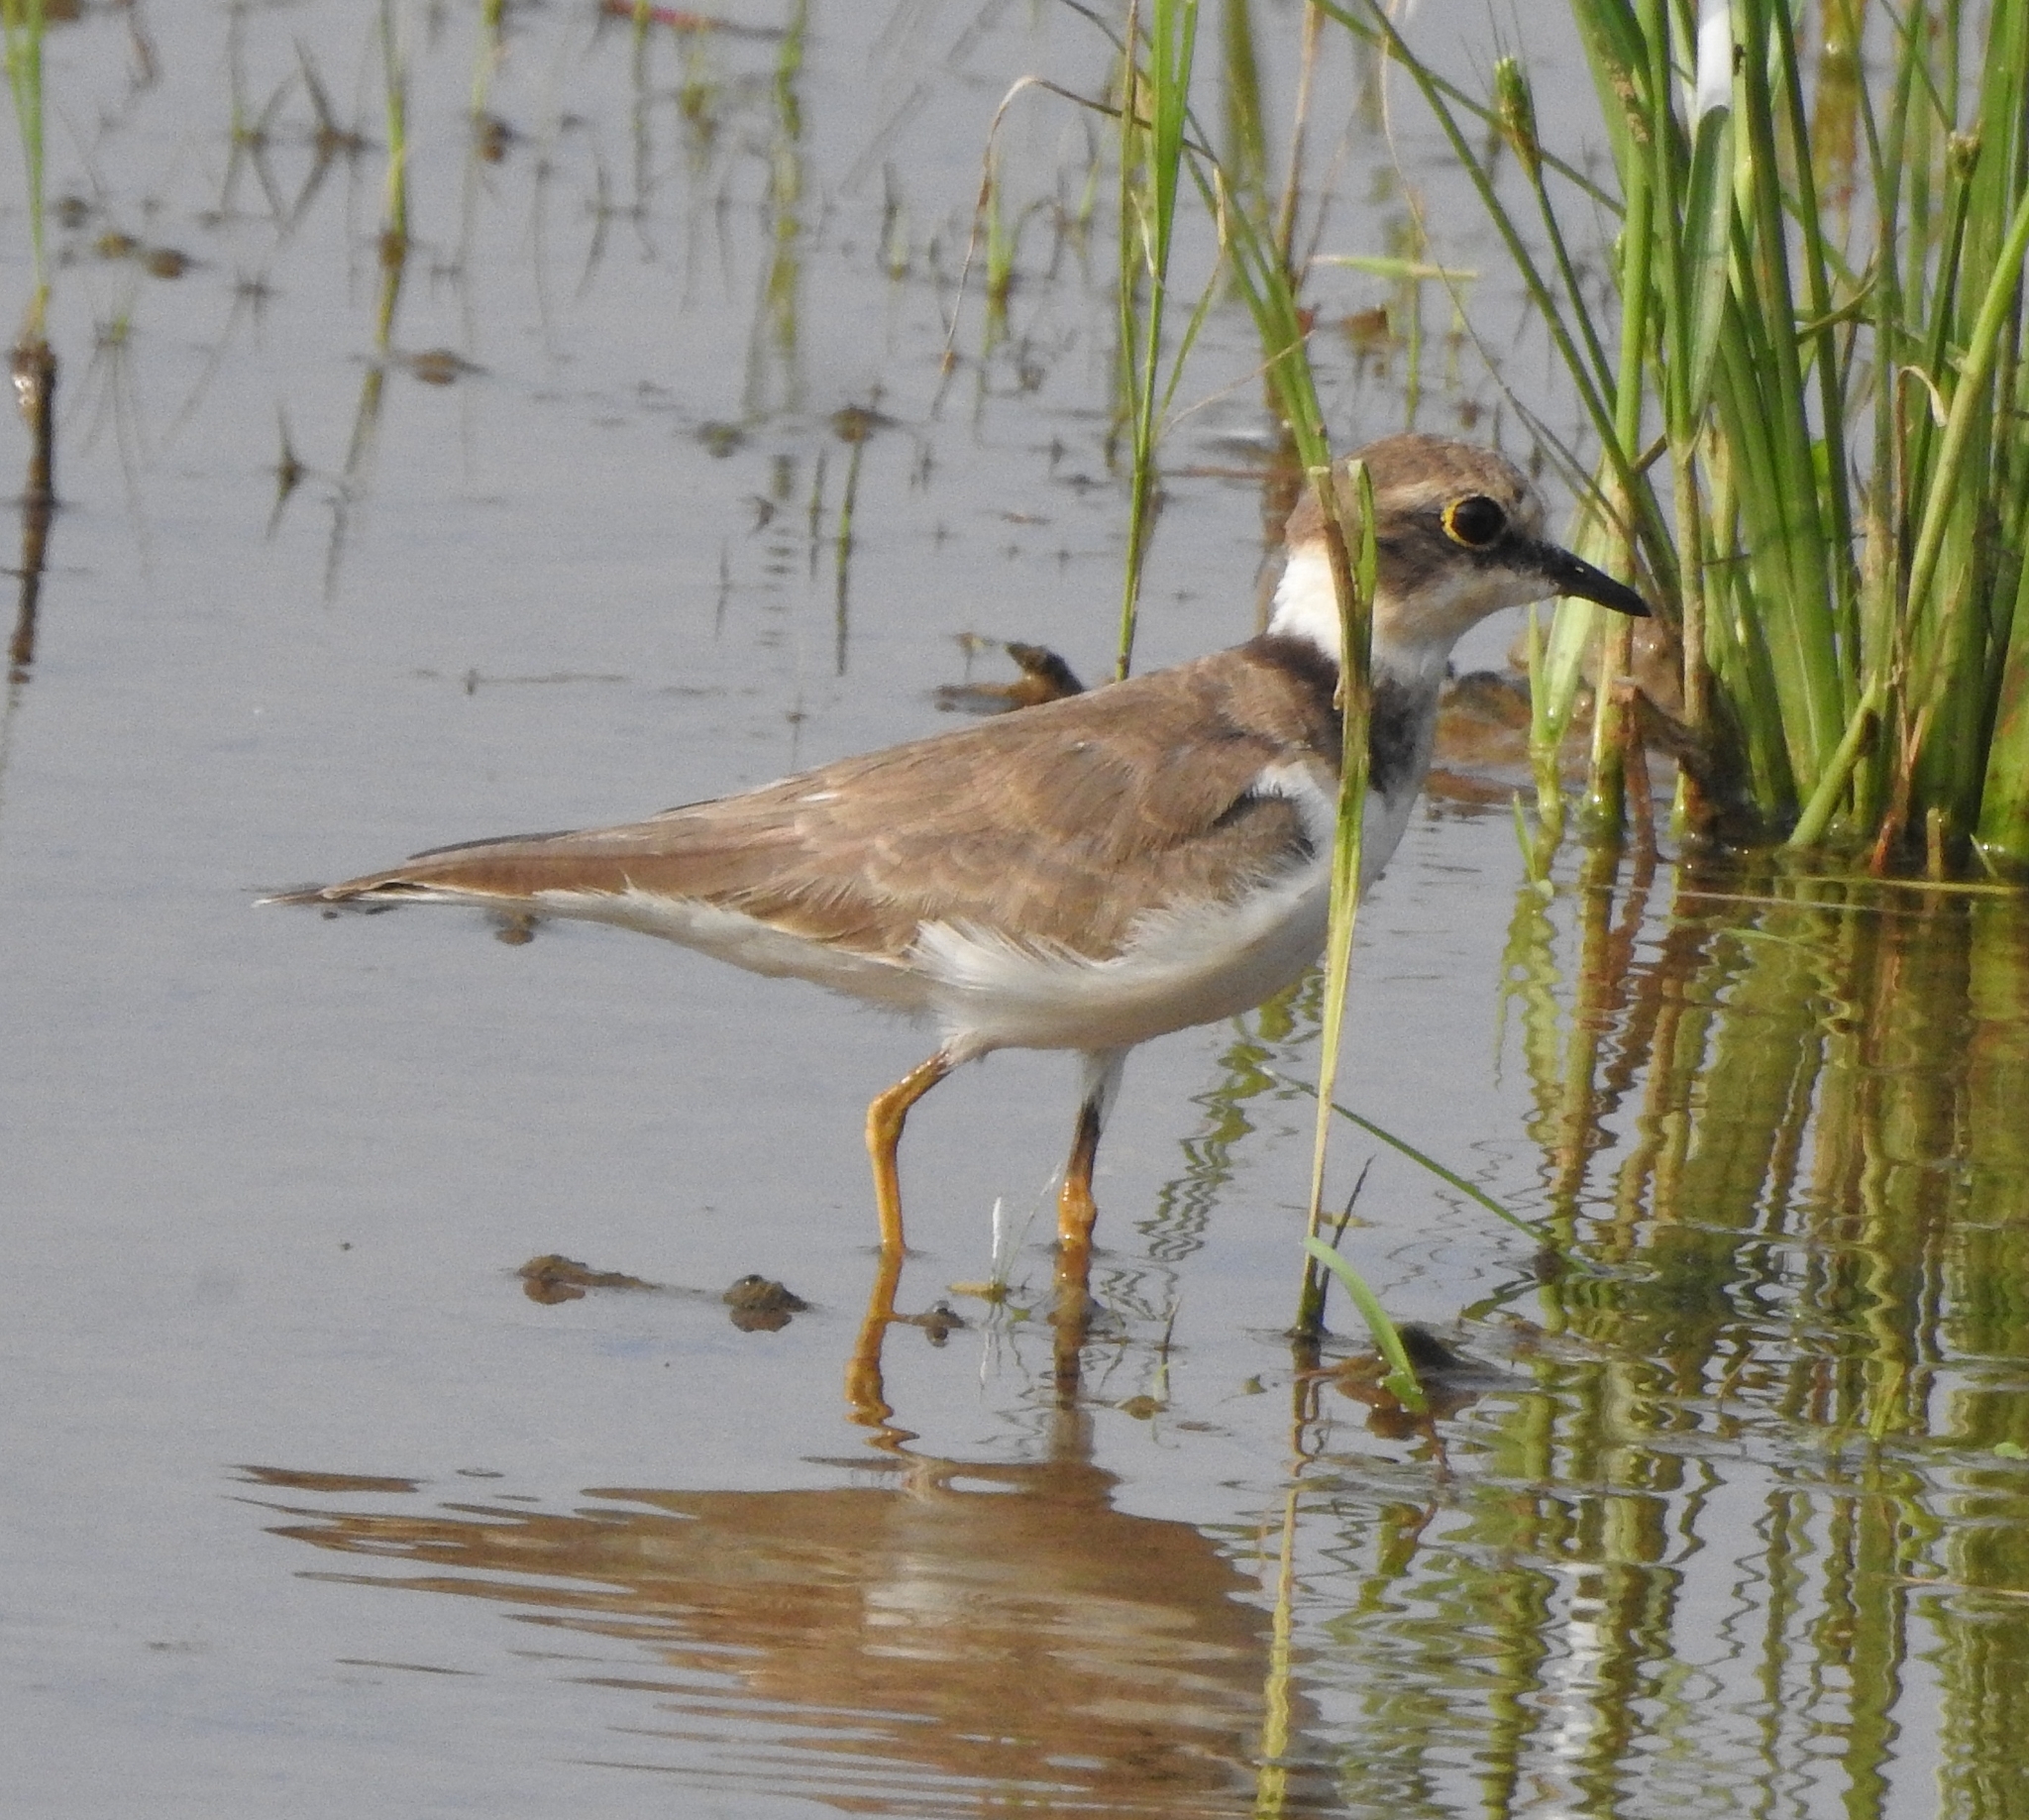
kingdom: Animalia
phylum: Chordata
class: Aves
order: Charadriiformes
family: Charadriidae
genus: Charadrius
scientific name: Charadrius dubius
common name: Little ringed plover
